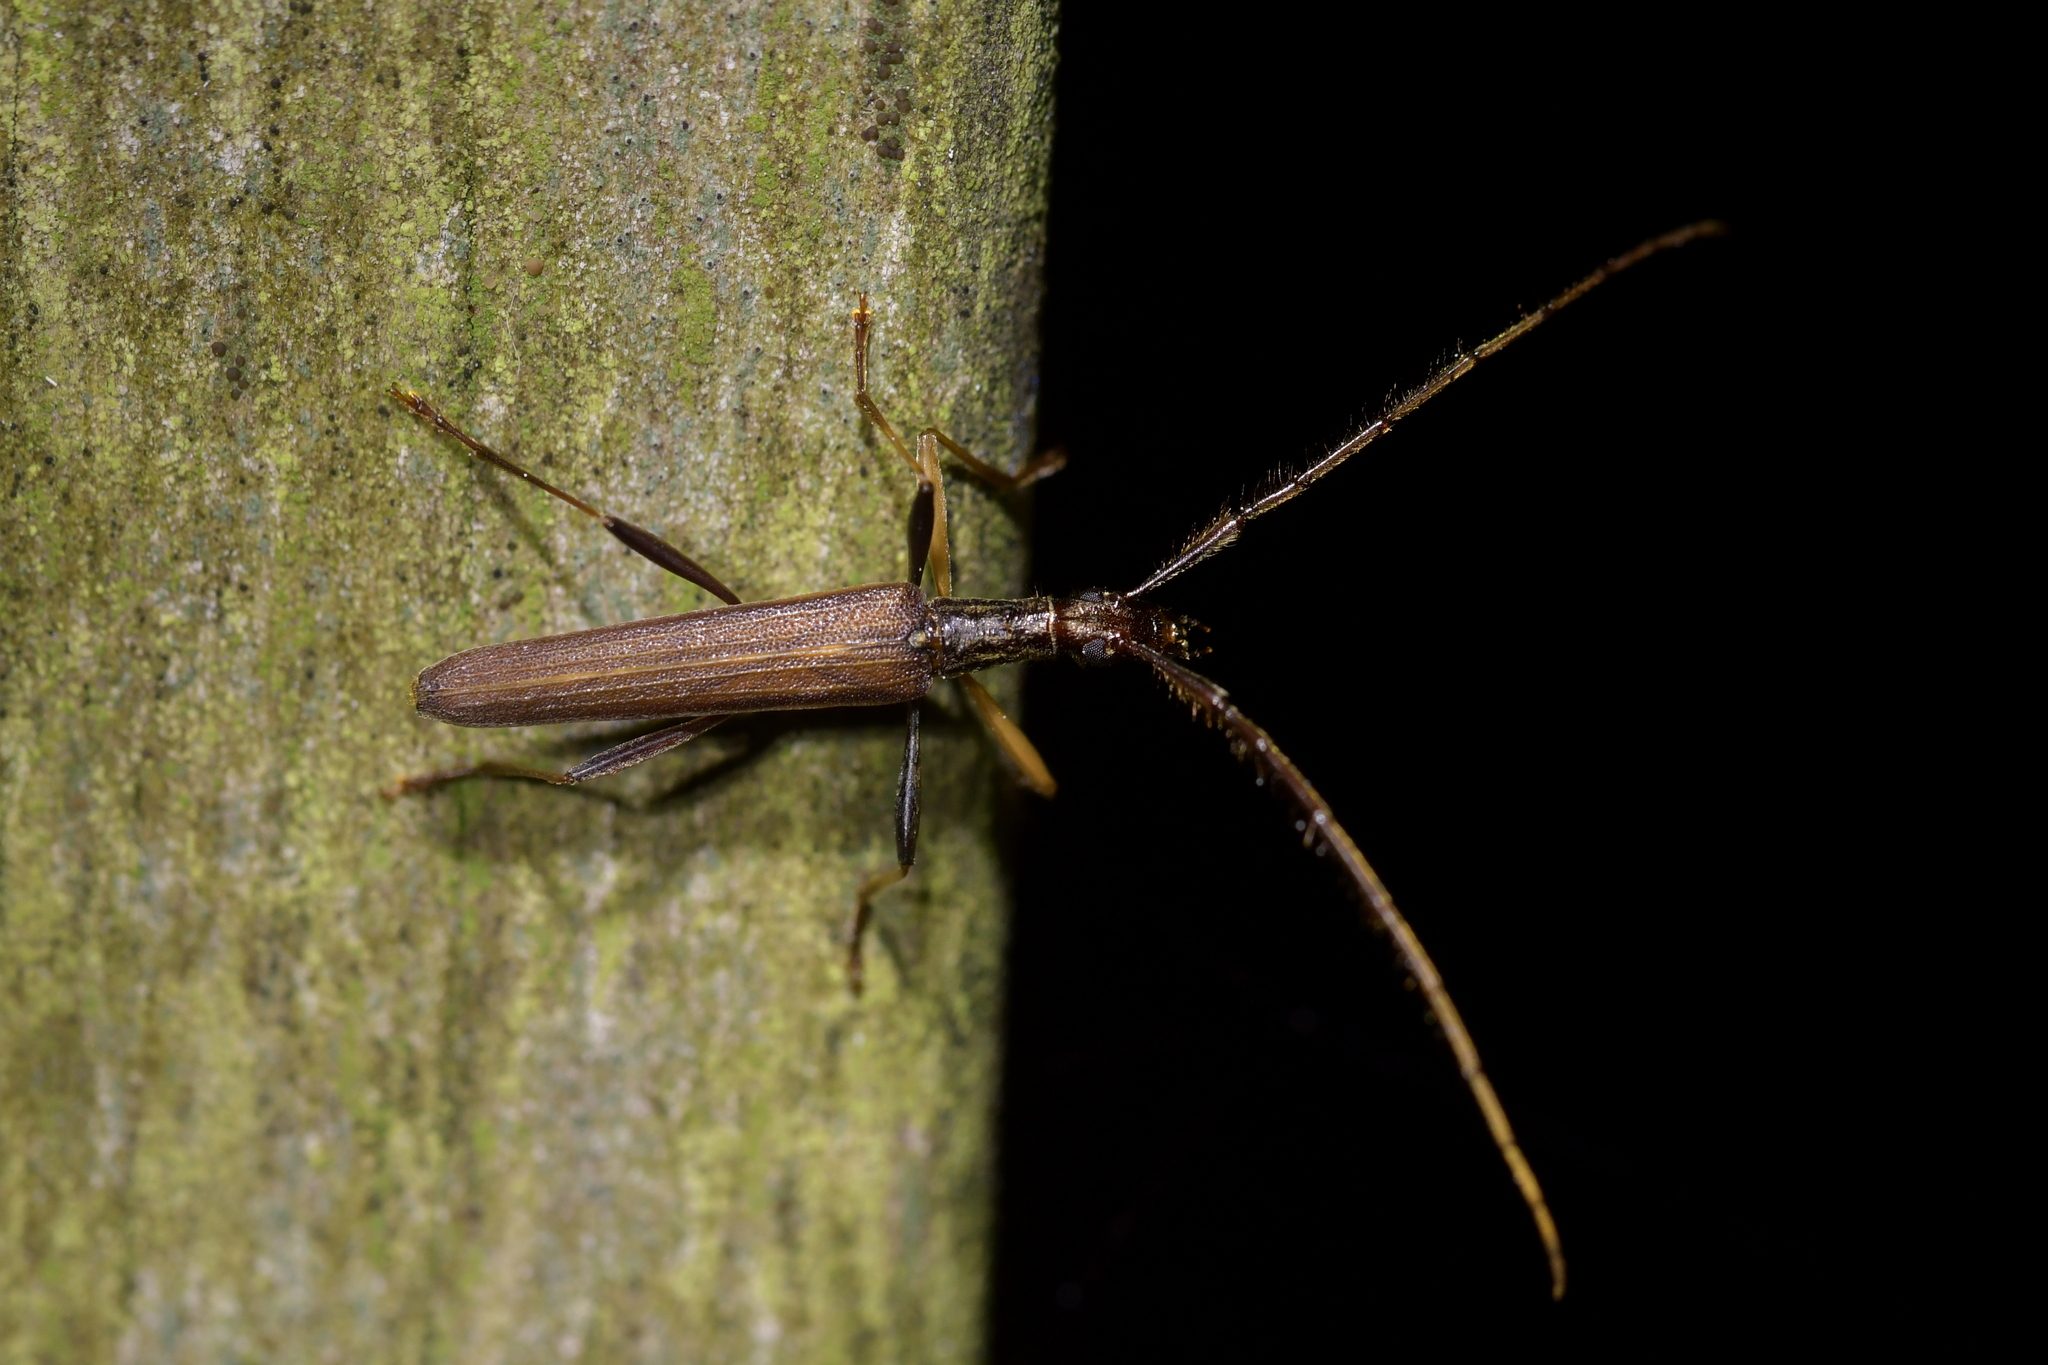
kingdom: Animalia
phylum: Arthropoda
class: Insecta
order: Coleoptera
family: Cerambycidae
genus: Stenopotes
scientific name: Stenopotes pallidus
